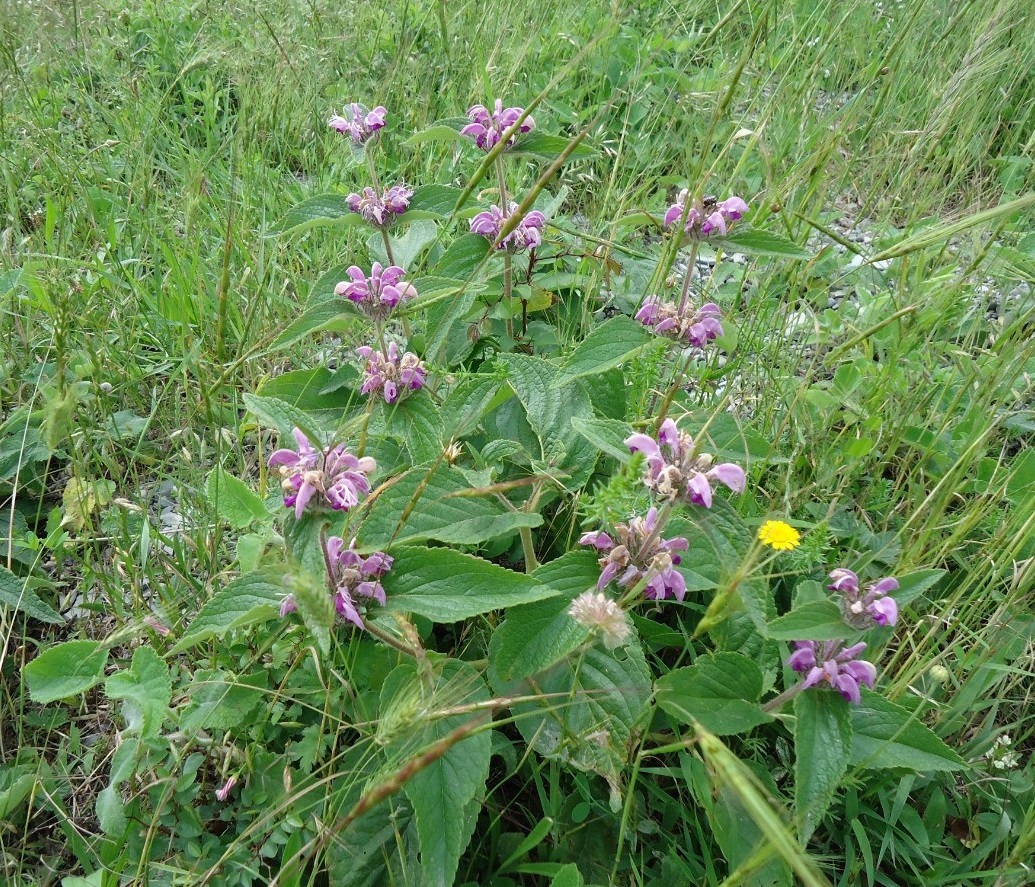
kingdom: Plantae
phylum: Tracheophyta
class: Magnoliopsida
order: Lamiales
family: Lamiaceae
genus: Phlomis
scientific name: Phlomis herba-venti
